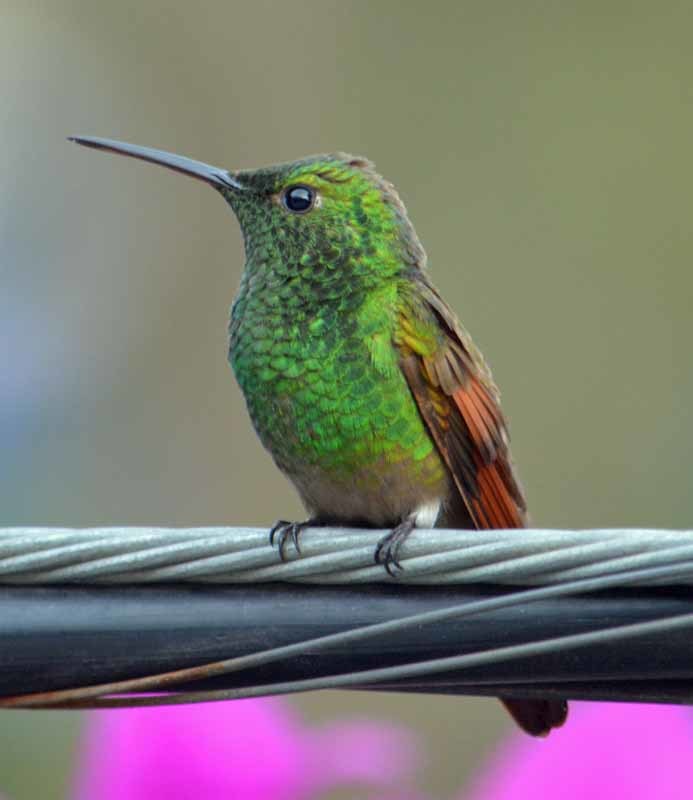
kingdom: Animalia
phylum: Chordata
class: Aves
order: Apodiformes
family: Trochilidae
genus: Saucerottia
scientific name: Saucerottia beryllina
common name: Berylline hummingbird
